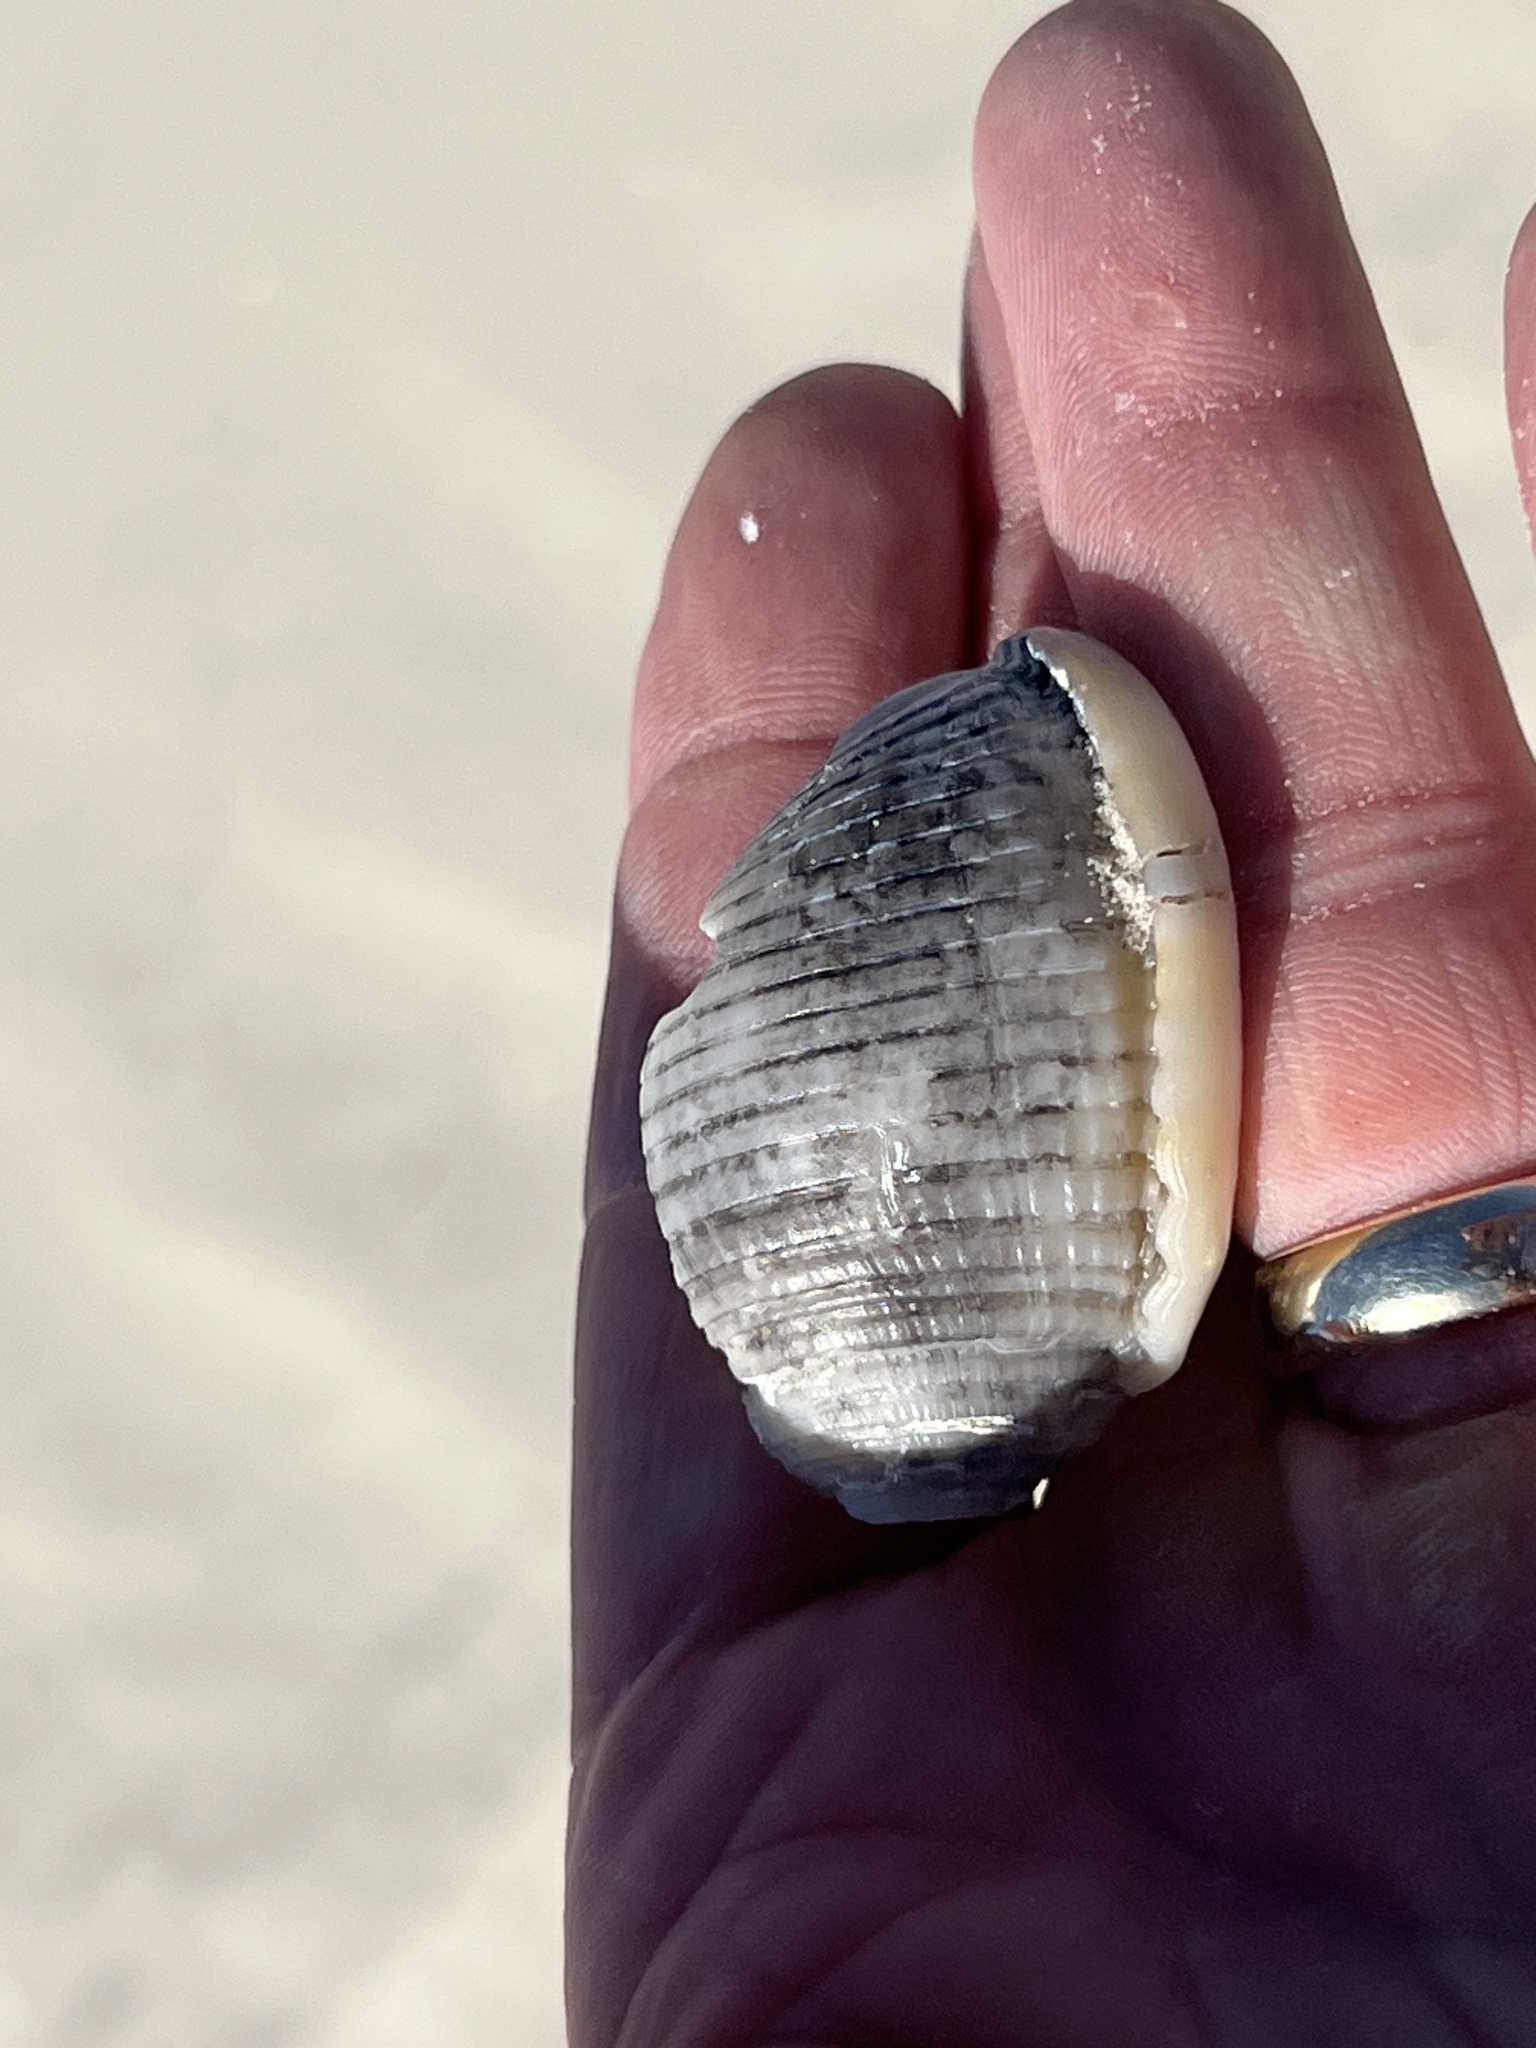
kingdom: Animalia
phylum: Mollusca
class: Gastropoda
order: Littorinimorpha
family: Cassidae
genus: Semicassis
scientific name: Semicassis granulata
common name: Scotch bonnet
